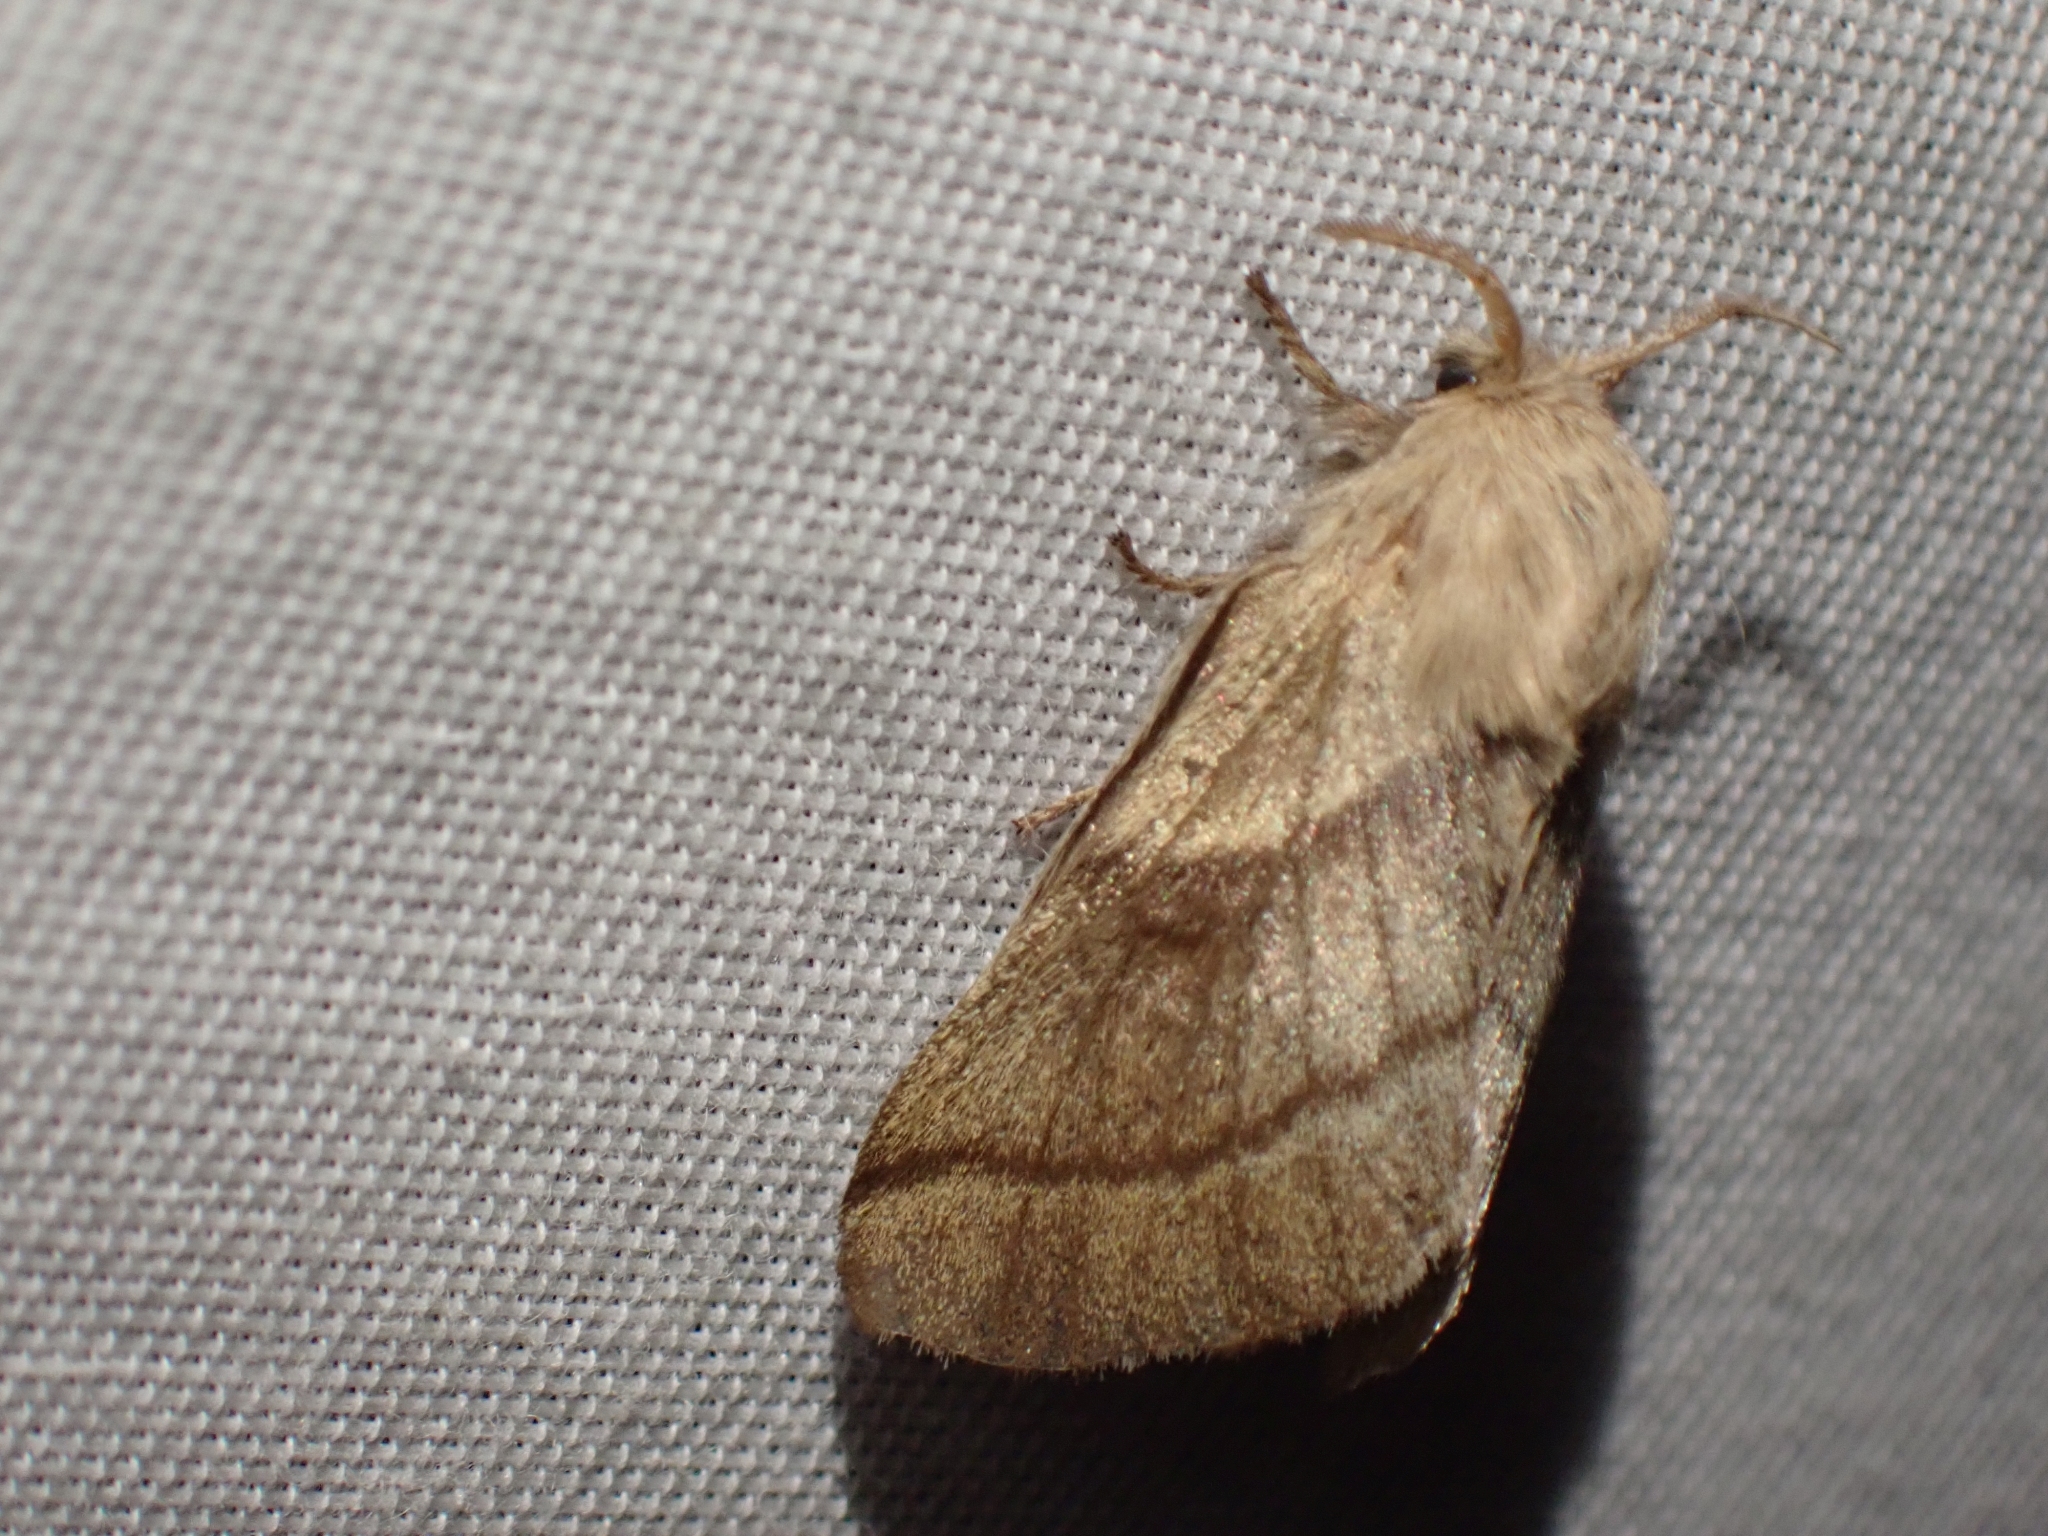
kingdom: Animalia
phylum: Arthropoda
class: Insecta
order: Lepidoptera
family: Lasiocampidae
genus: Malacosoma
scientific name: Malacosoma disstria
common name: Forest tent caterpillar
